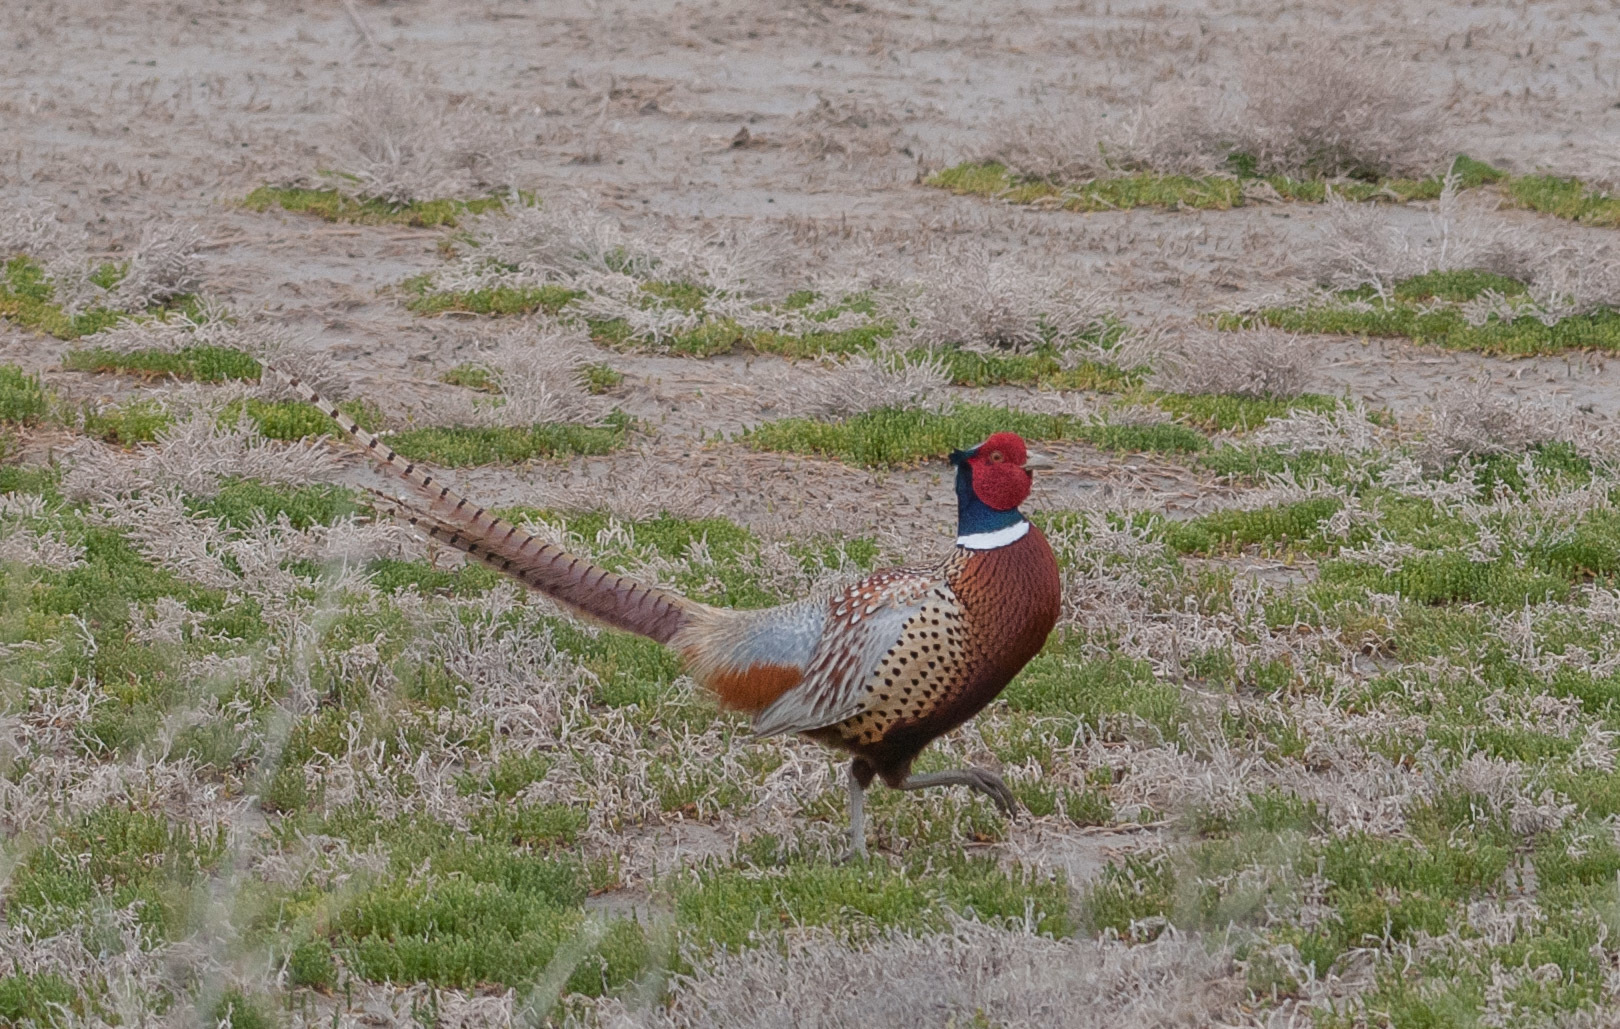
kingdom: Animalia
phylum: Chordata
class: Aves
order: Galliformes
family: Phasianidae
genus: Phasianus
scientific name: Phasianus colchicus
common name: Common pheasant
